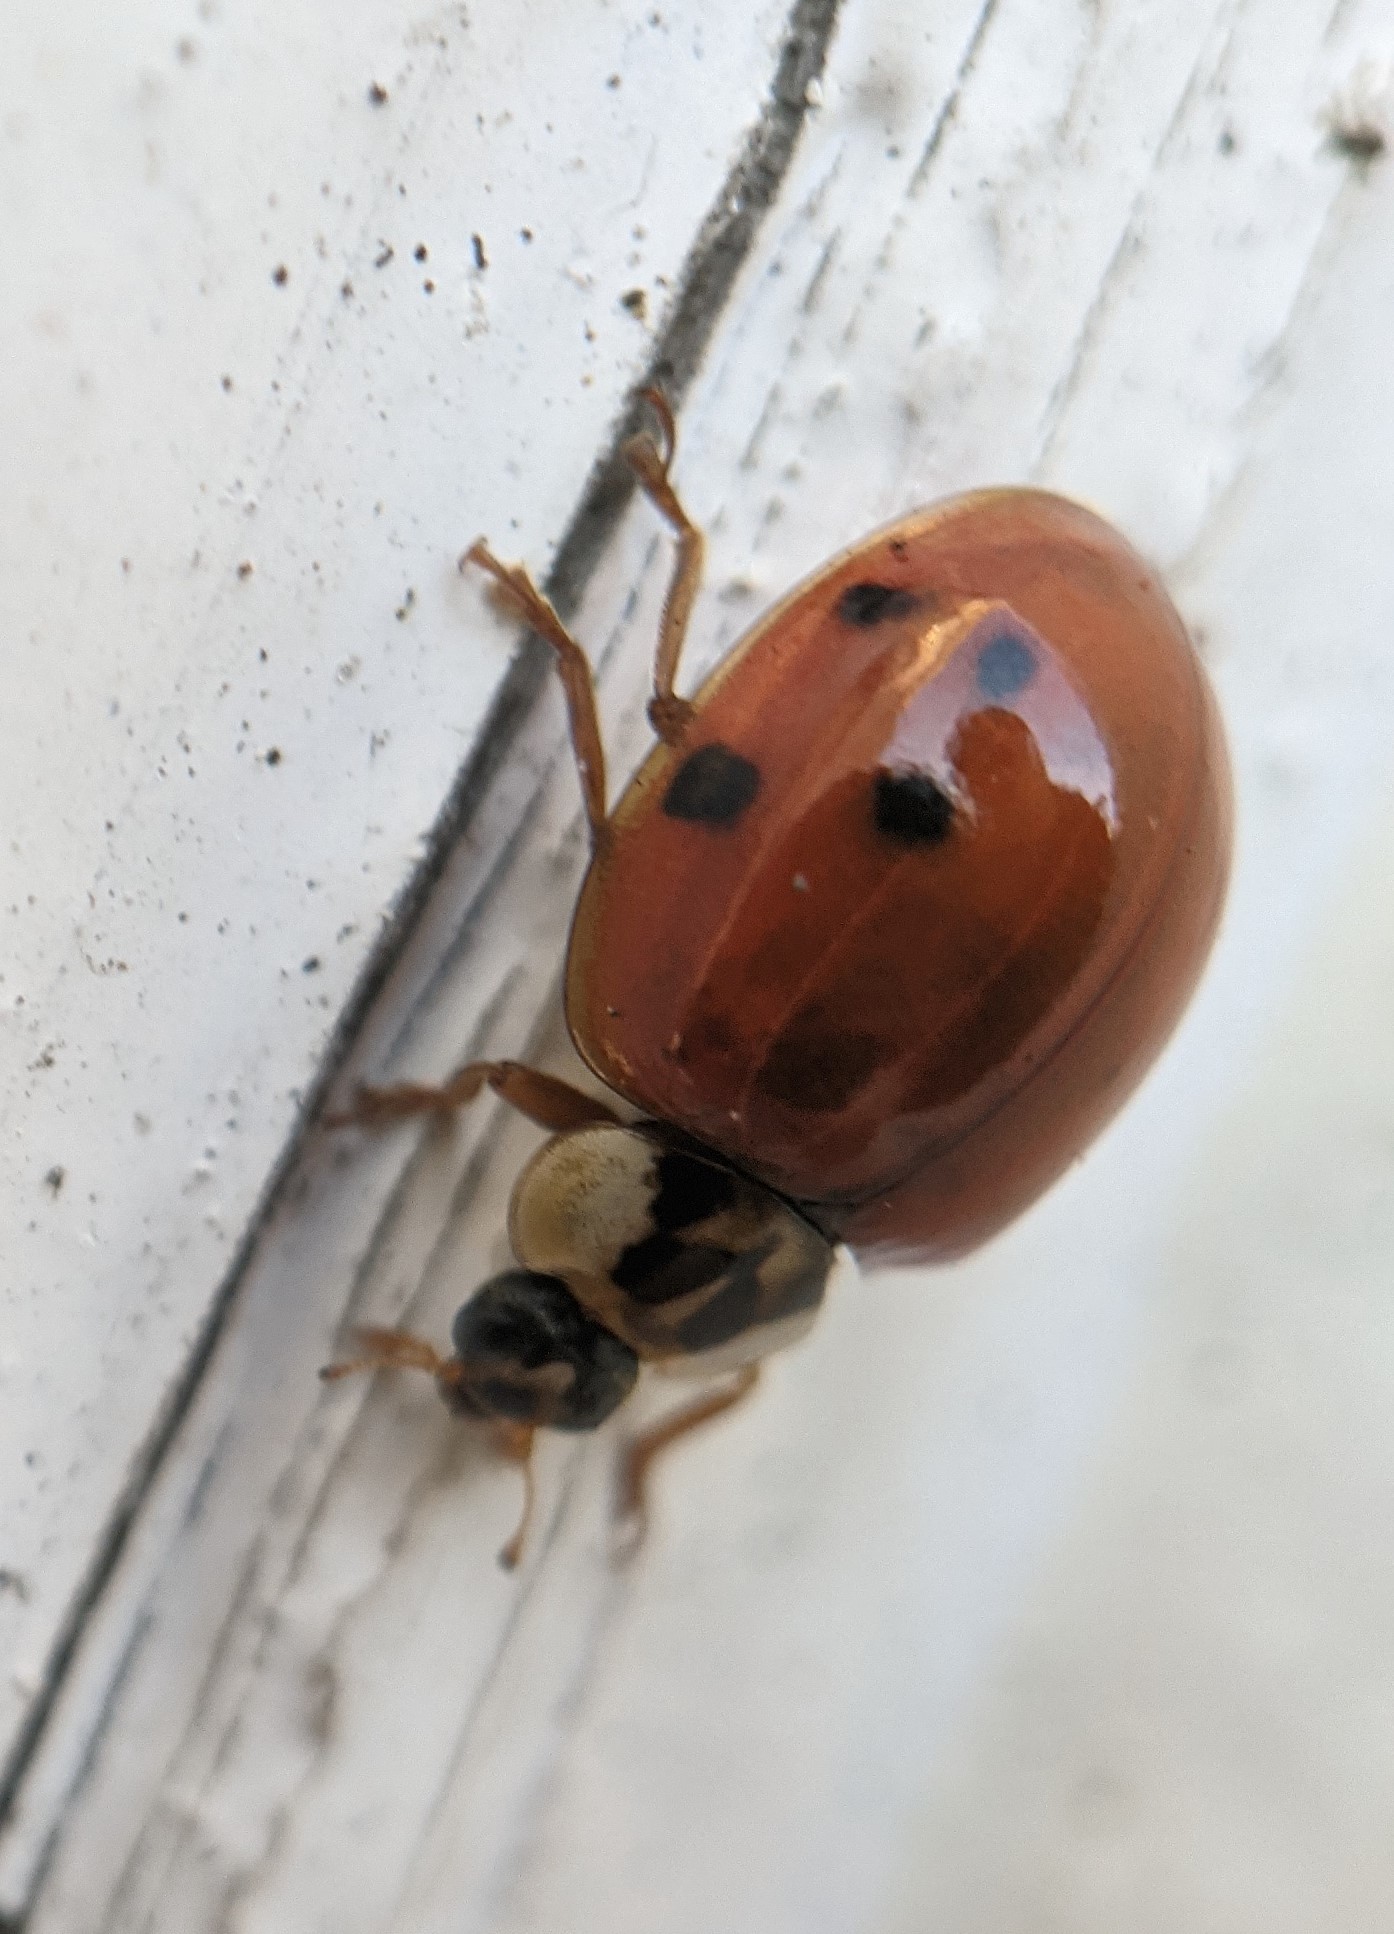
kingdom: Animalia
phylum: Arthropoda
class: Insecta
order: Coleoptera
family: Coccinellidae
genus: Harmonia
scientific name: Harmonia axyridis
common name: Harlequin ladybird
